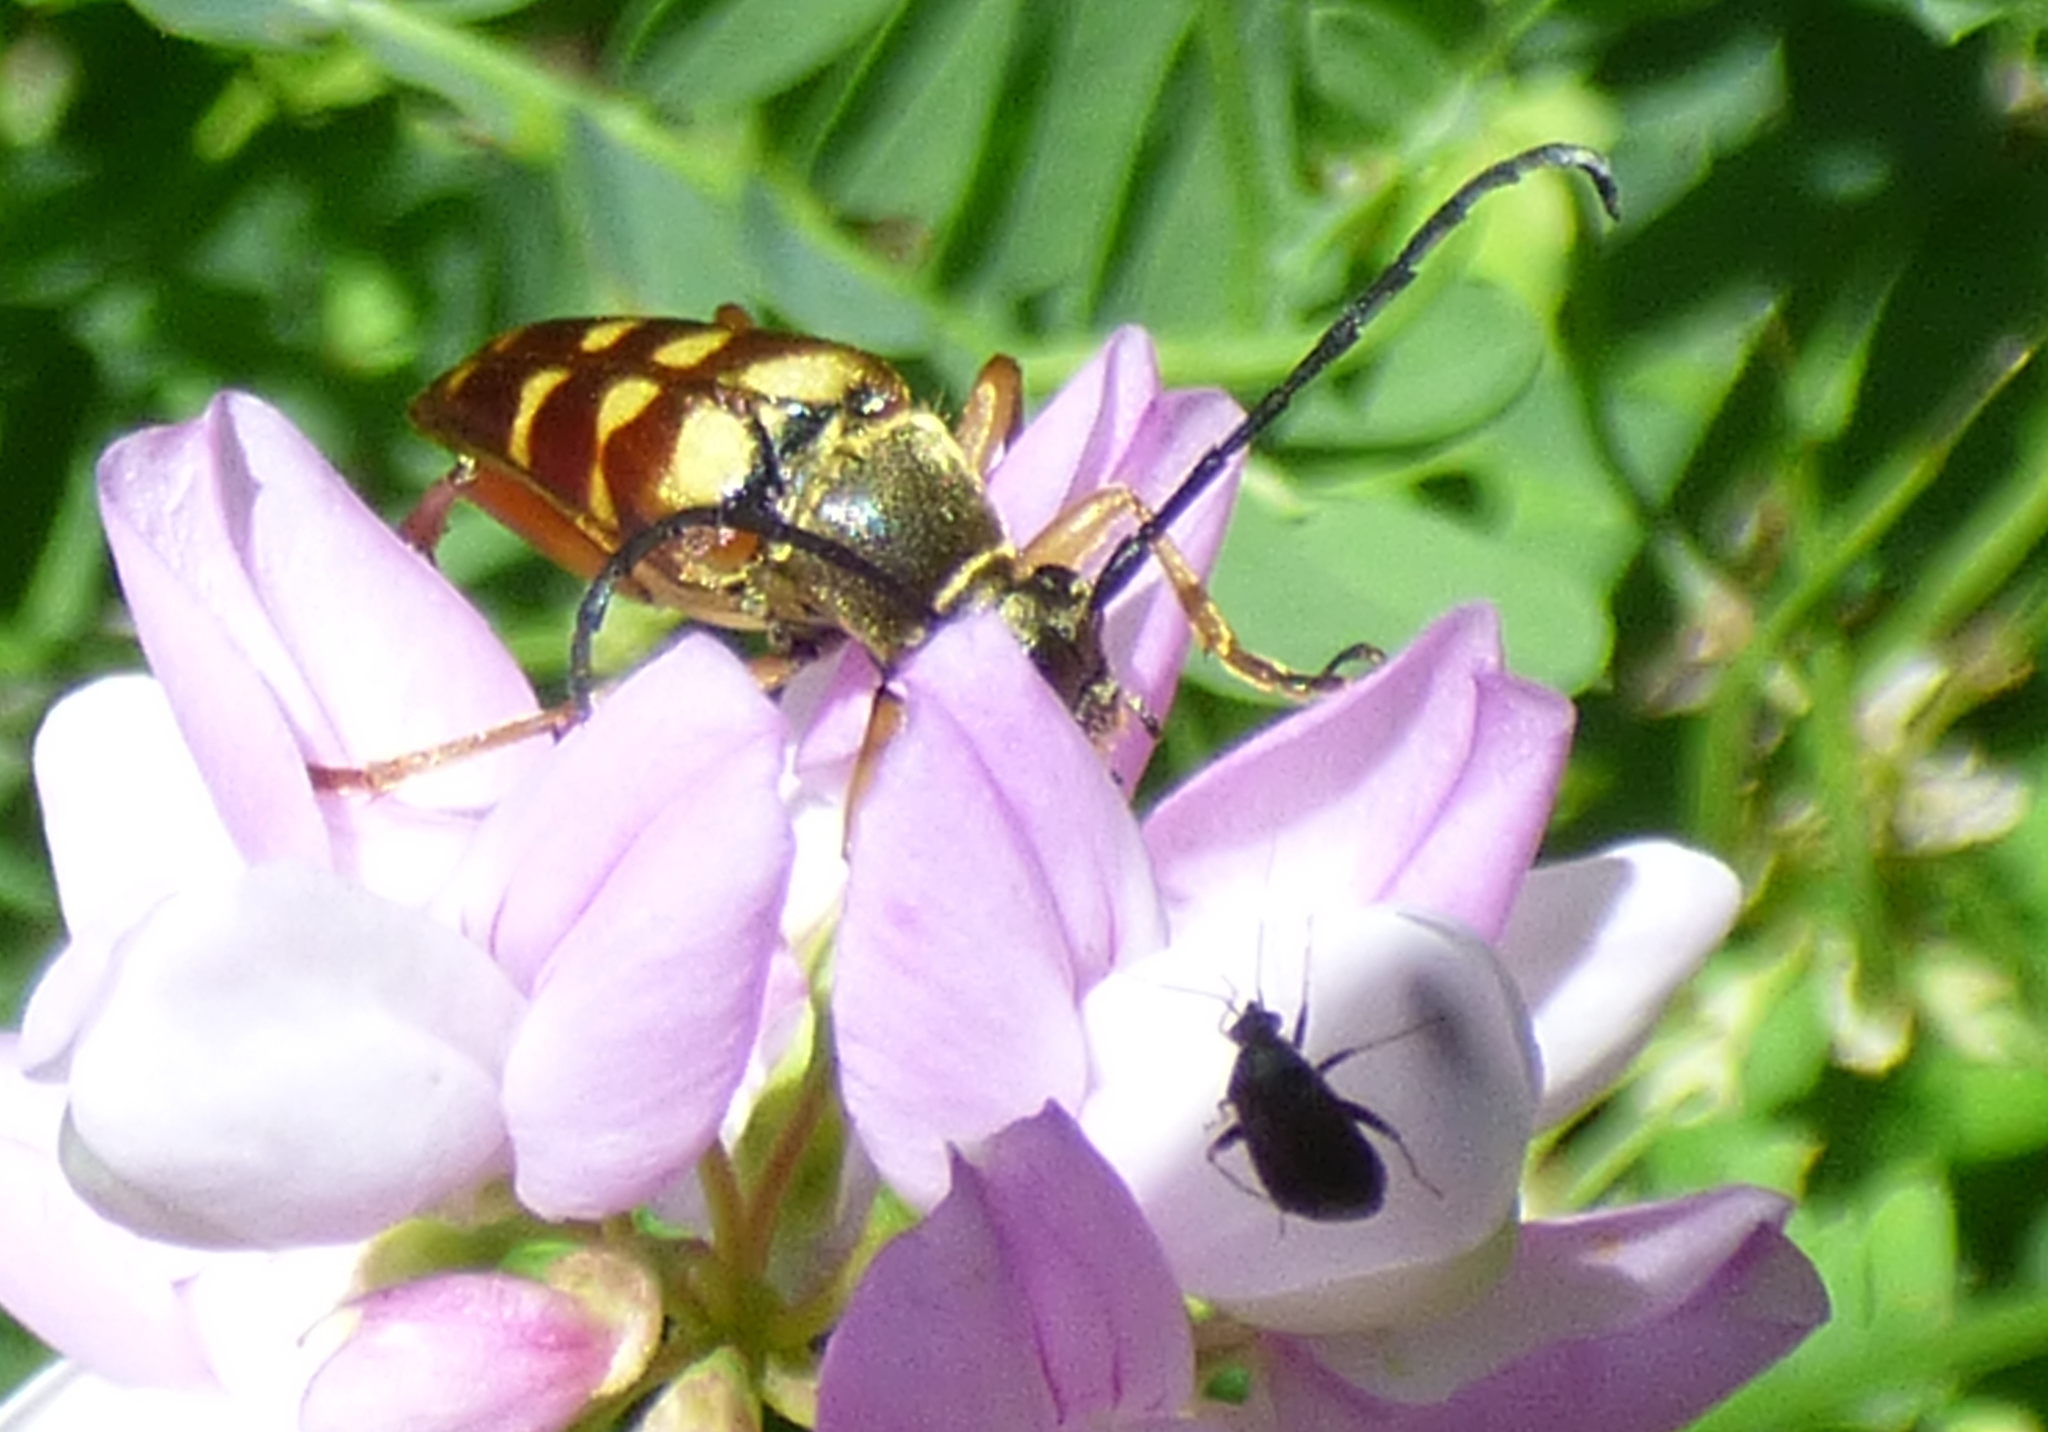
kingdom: Animalia
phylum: Arthropoda
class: Insecta
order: Coleoptera
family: Cerambycidae
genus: Typocerus
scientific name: Typocerus velutinus
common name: Banded longhorn beetle
